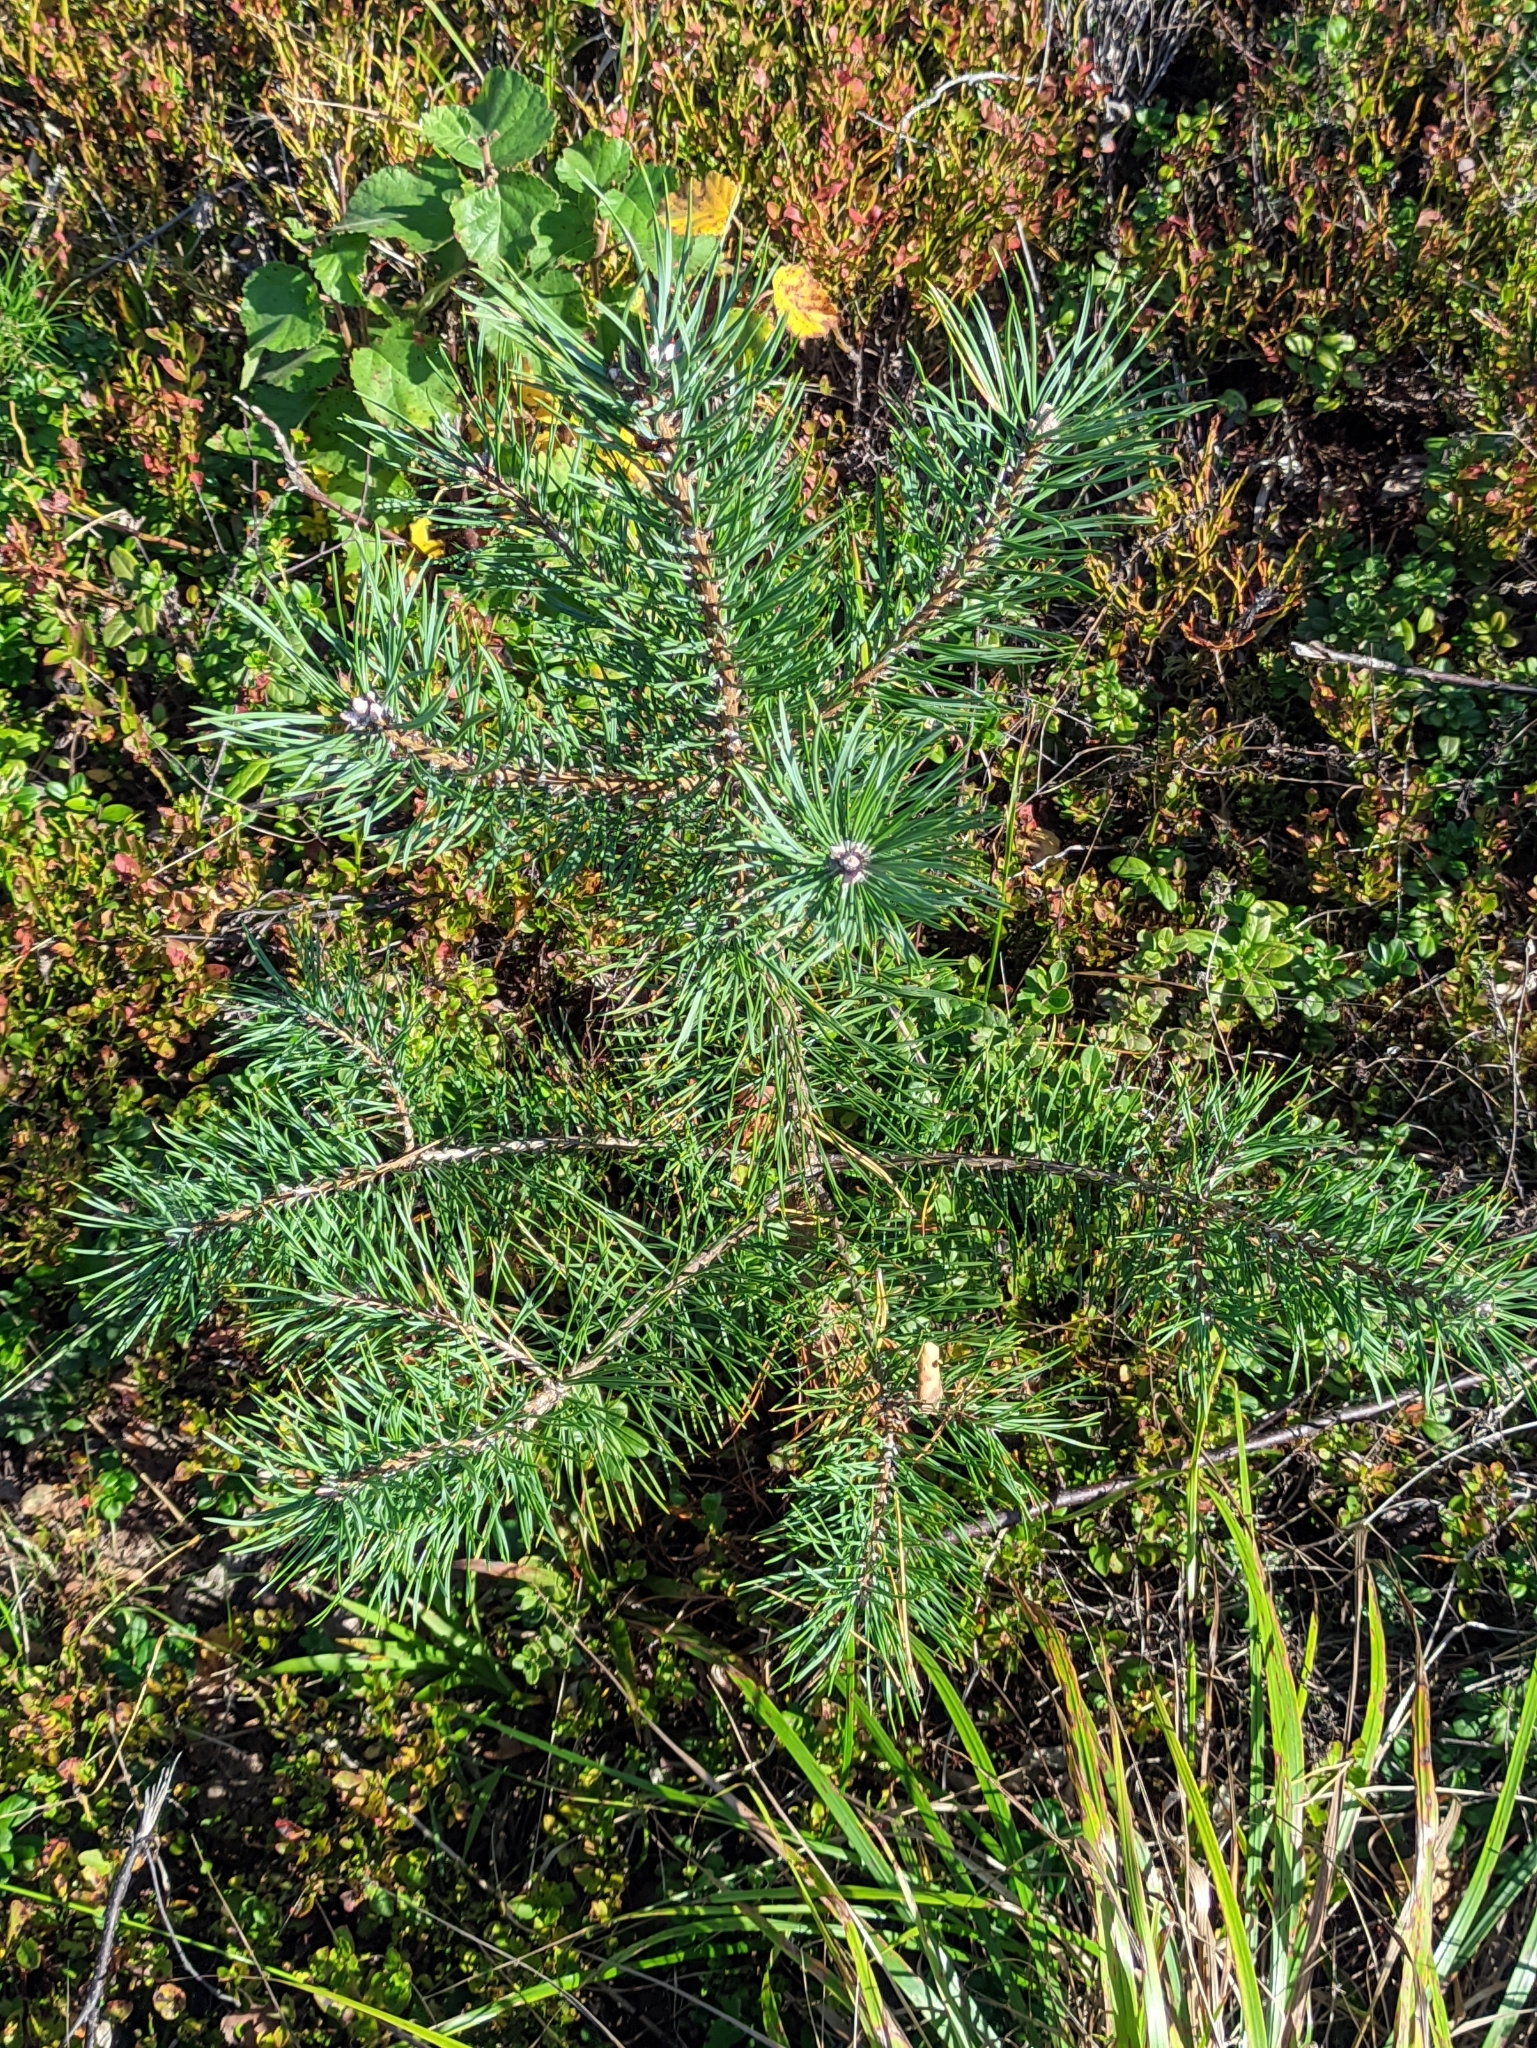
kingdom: Plantae
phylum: Tracheophyta
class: Pinopsida
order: Pinales
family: Pinaceae
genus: Pinus
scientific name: Pinus sylvestris
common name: Scots pine
